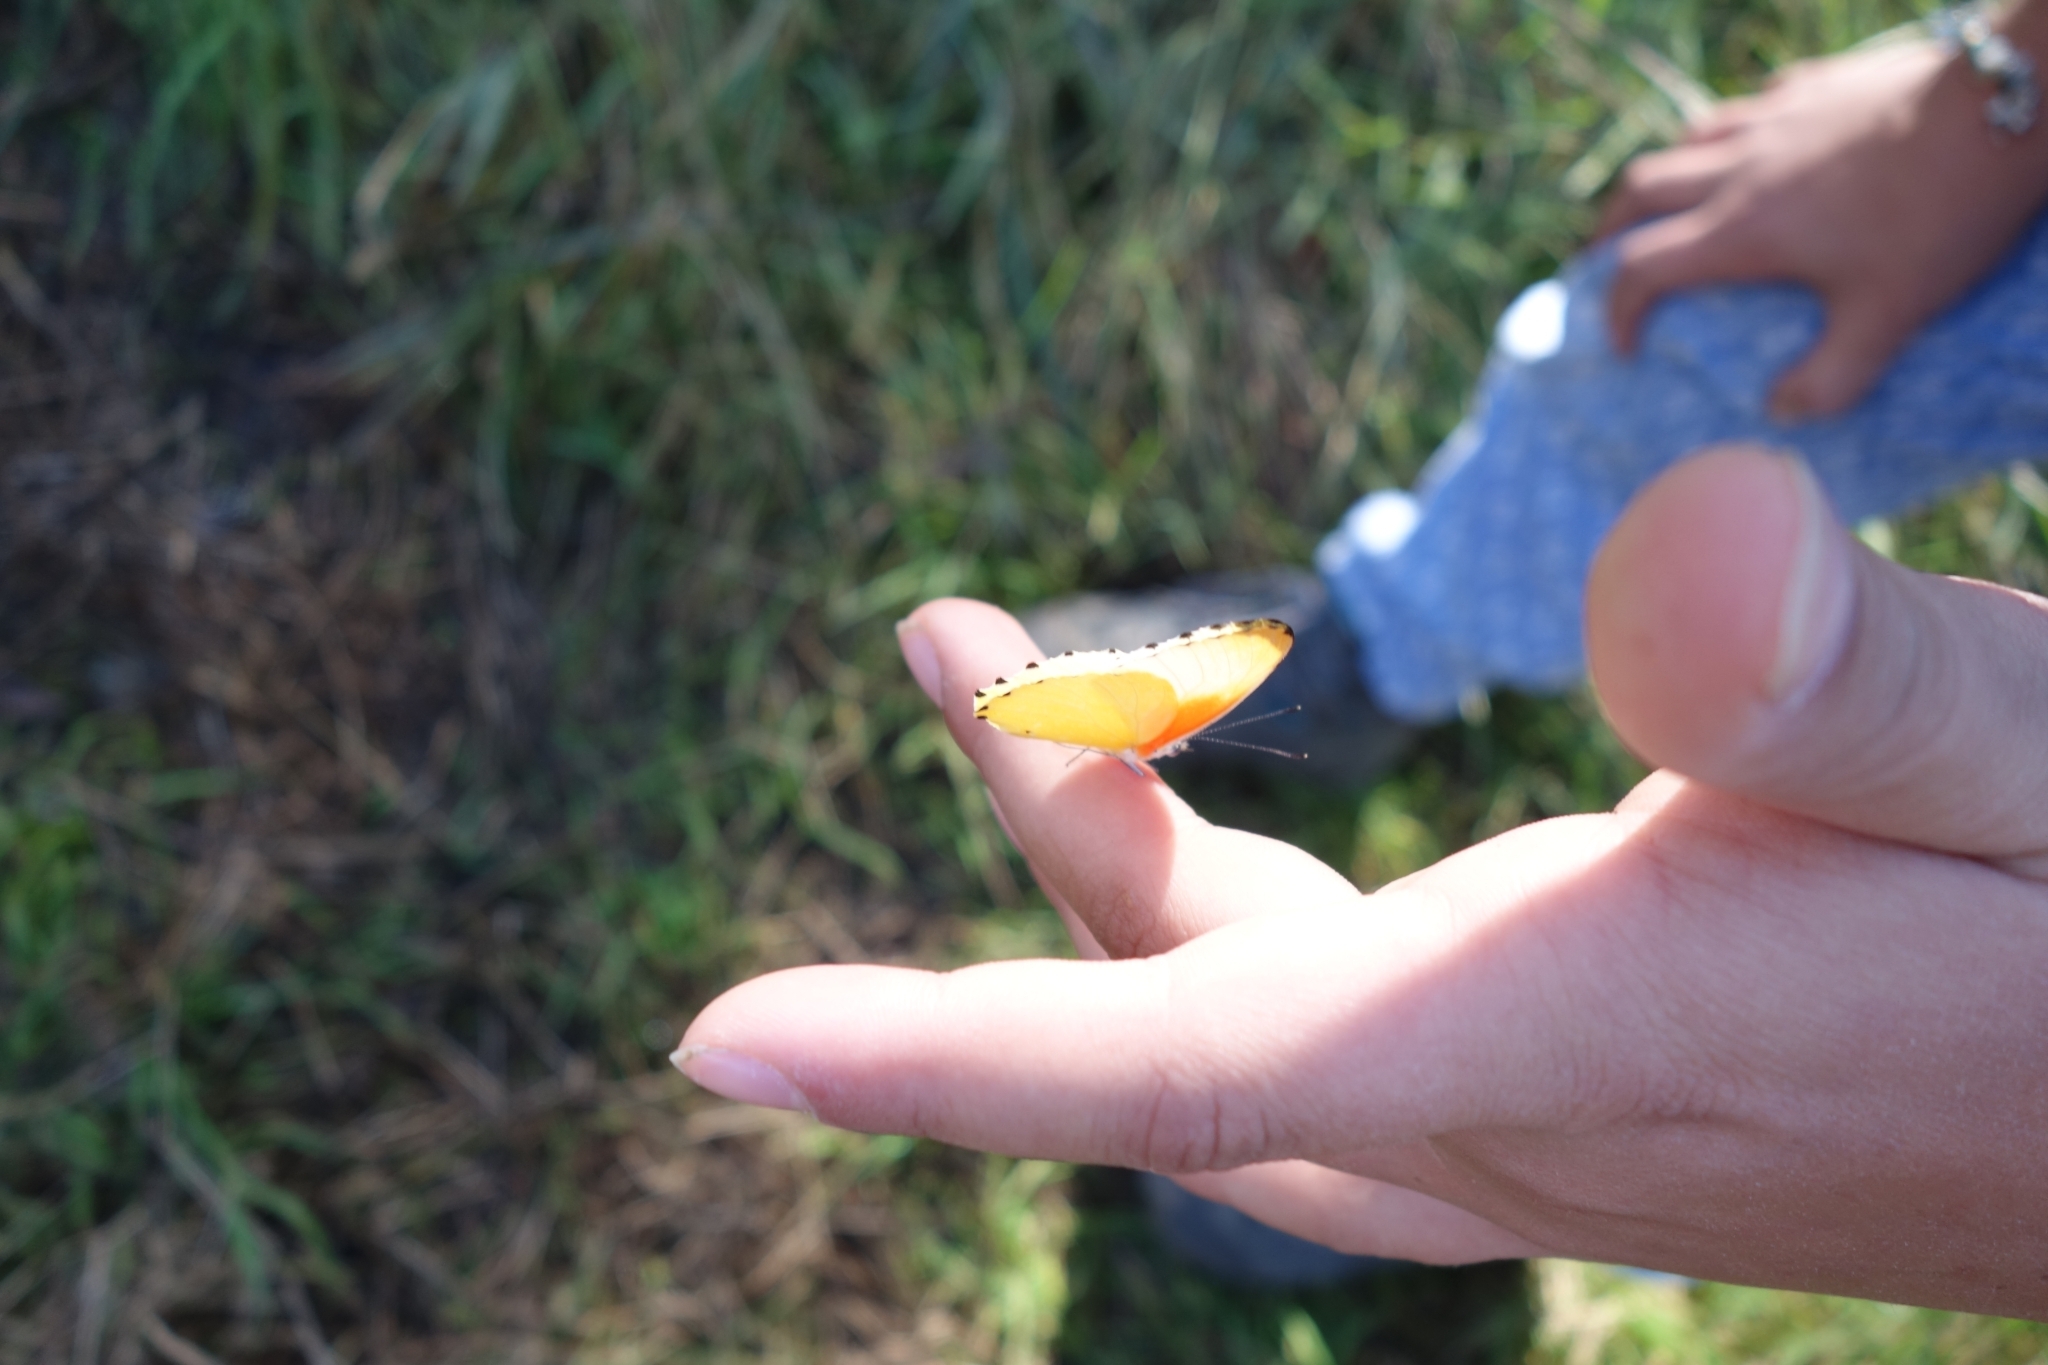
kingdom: Animalia
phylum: Arthropoda
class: Insecta
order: Lepidoptera
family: Pieridae
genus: Mylothris
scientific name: Mylothris agathina
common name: Eastern dotted border
